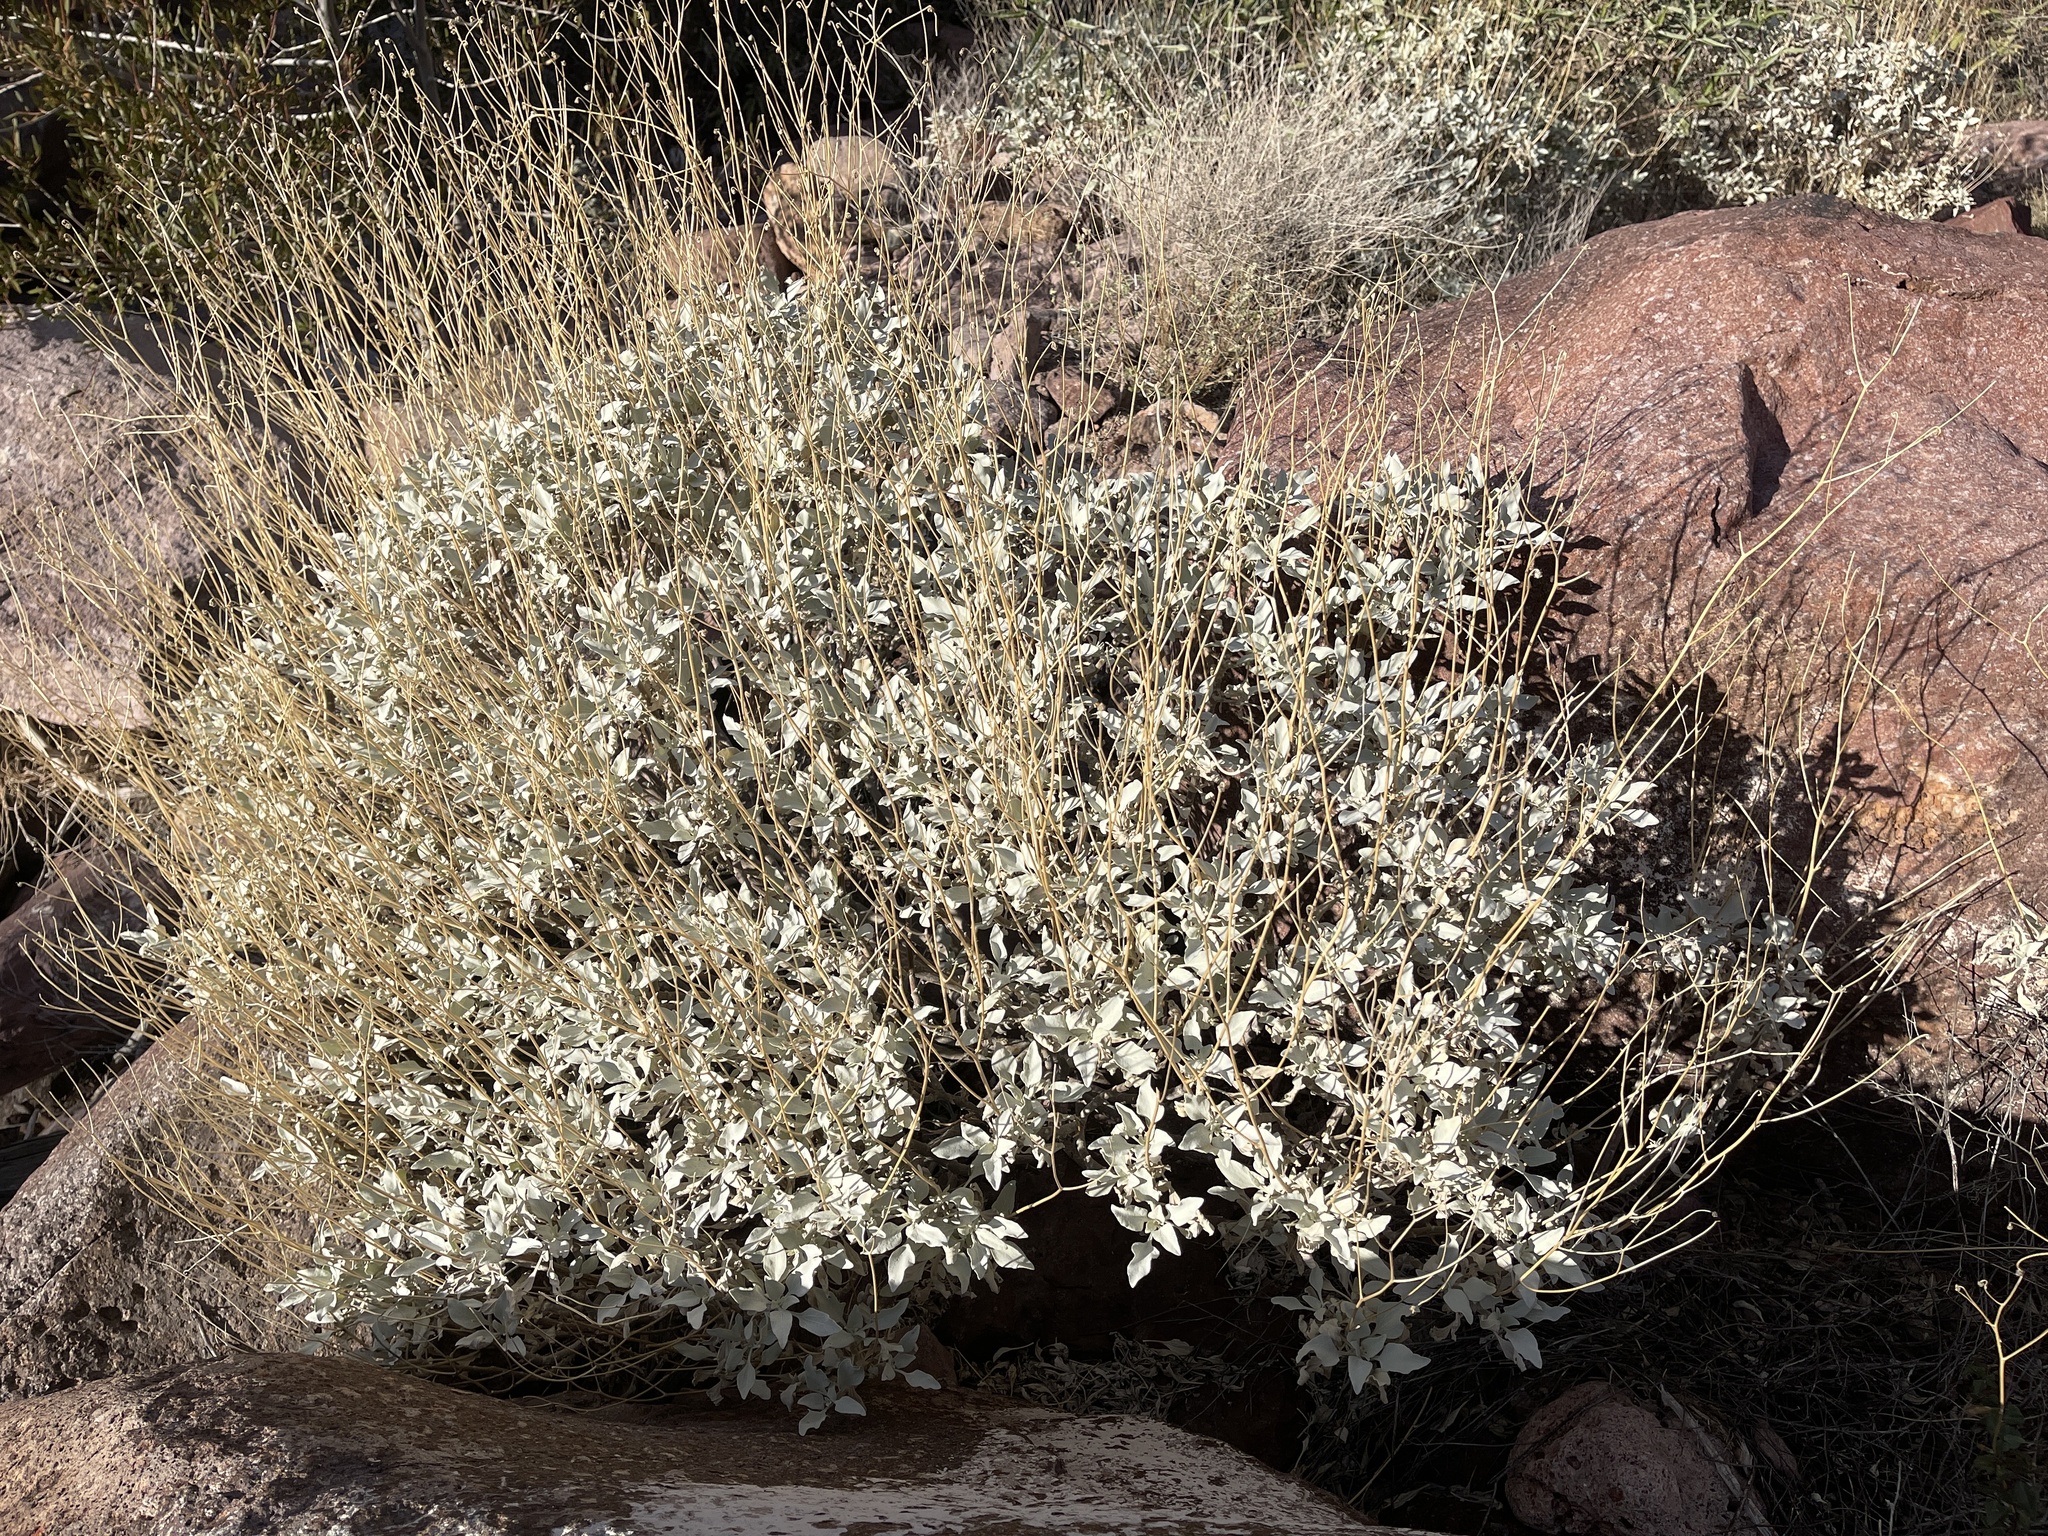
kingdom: Plantae
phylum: Tracheophyta
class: Magnoliopsida
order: Asterales
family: Asteraceae
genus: Encelia
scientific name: Encelia farinosa
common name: Brittlebush
